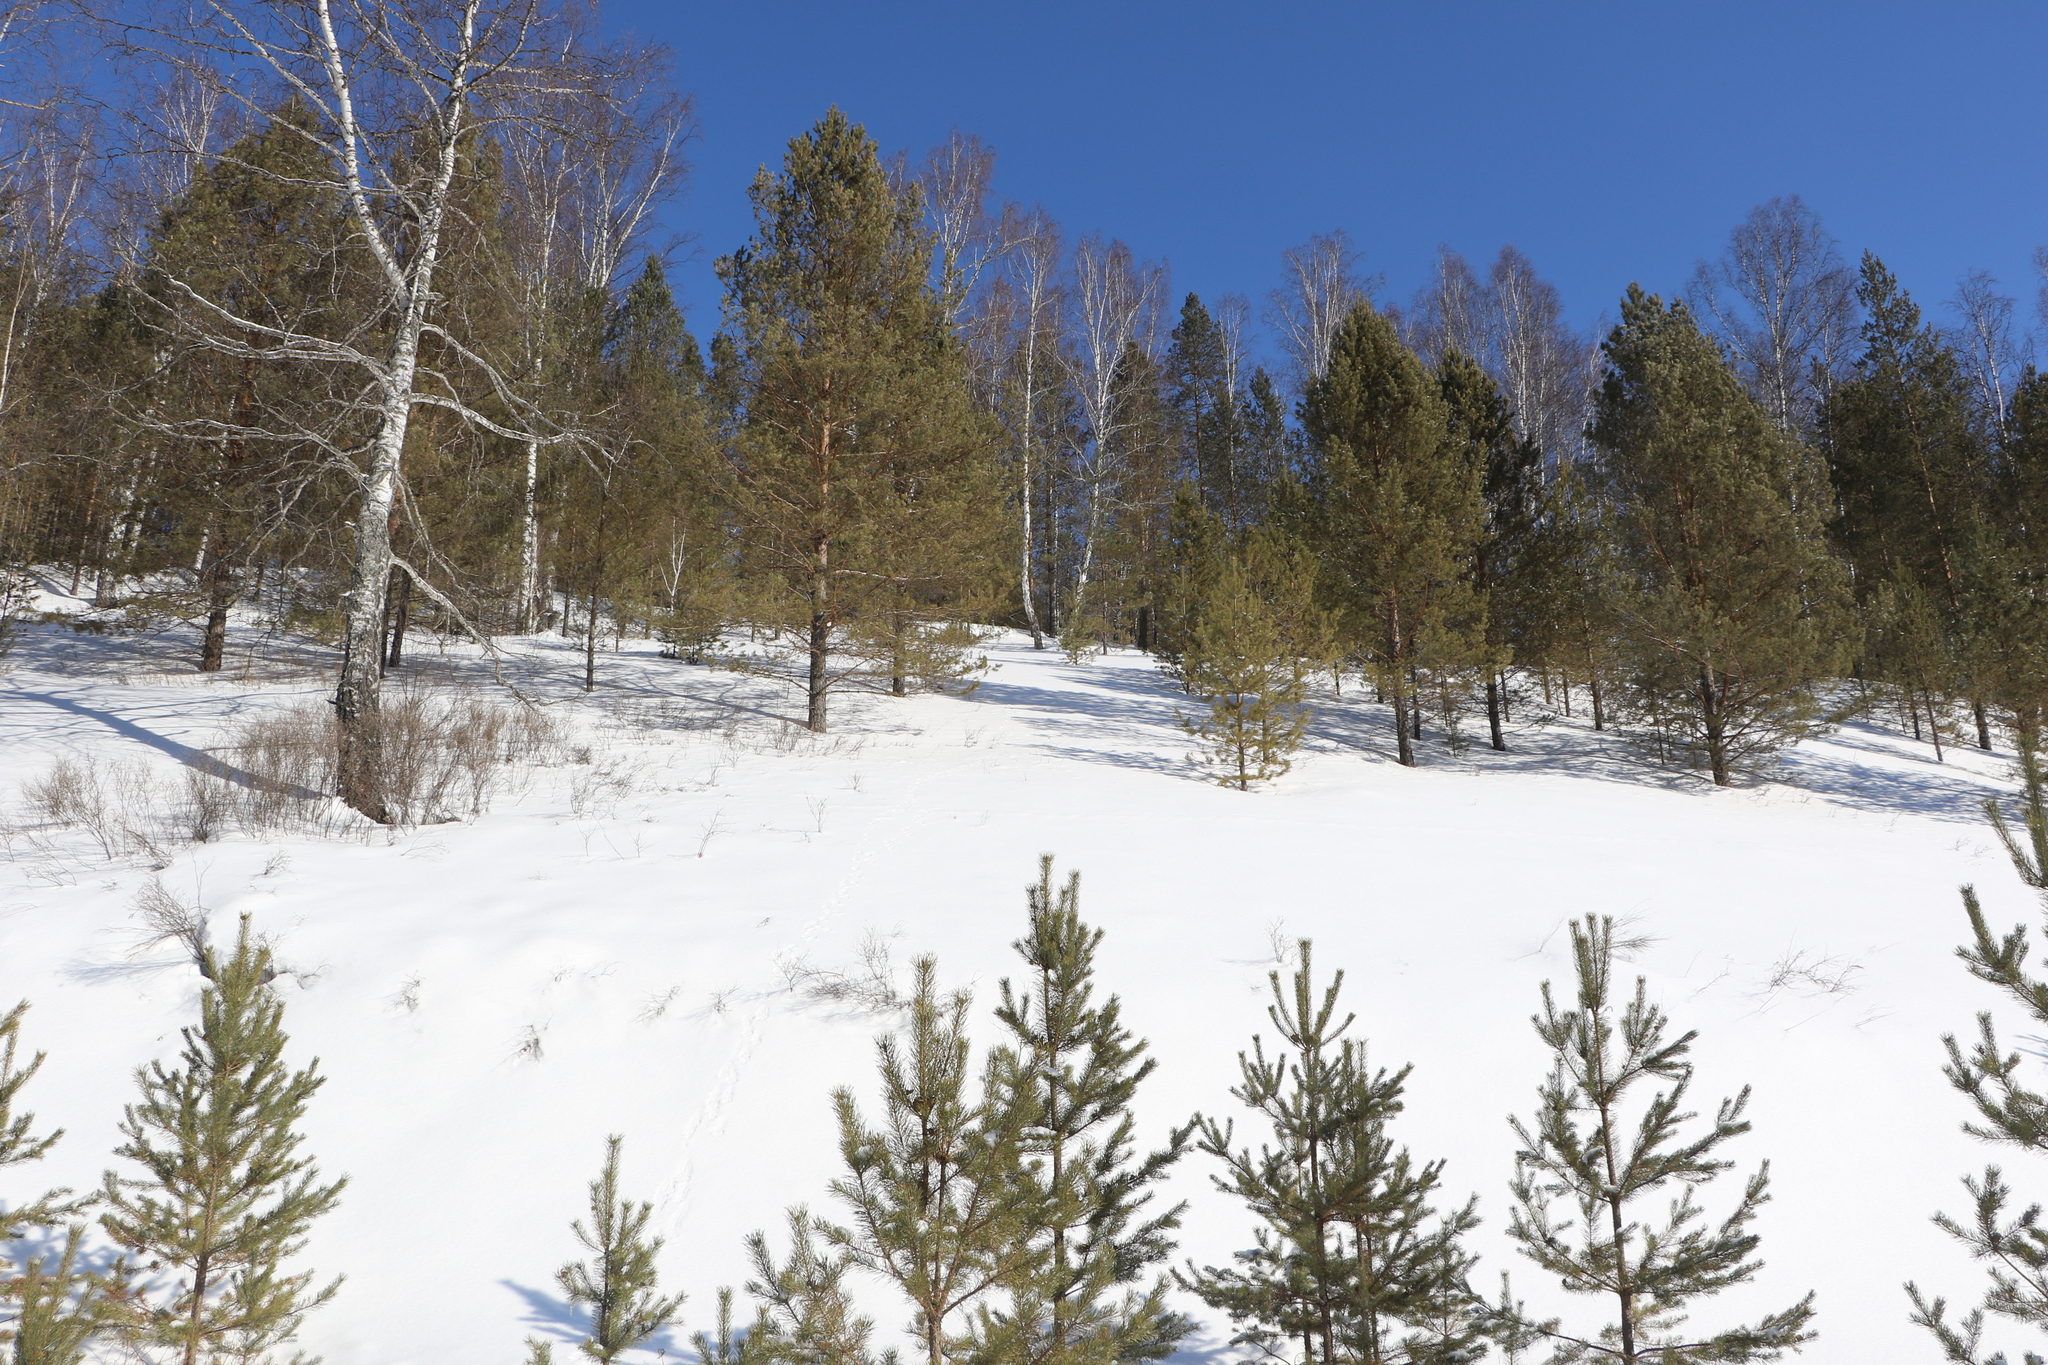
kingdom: Plantae
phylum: Tracheophyta
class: Pinopsida
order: Pinales
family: Pinaceae
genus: Pinus
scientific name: Pinus sylvestris
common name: Scots pine
